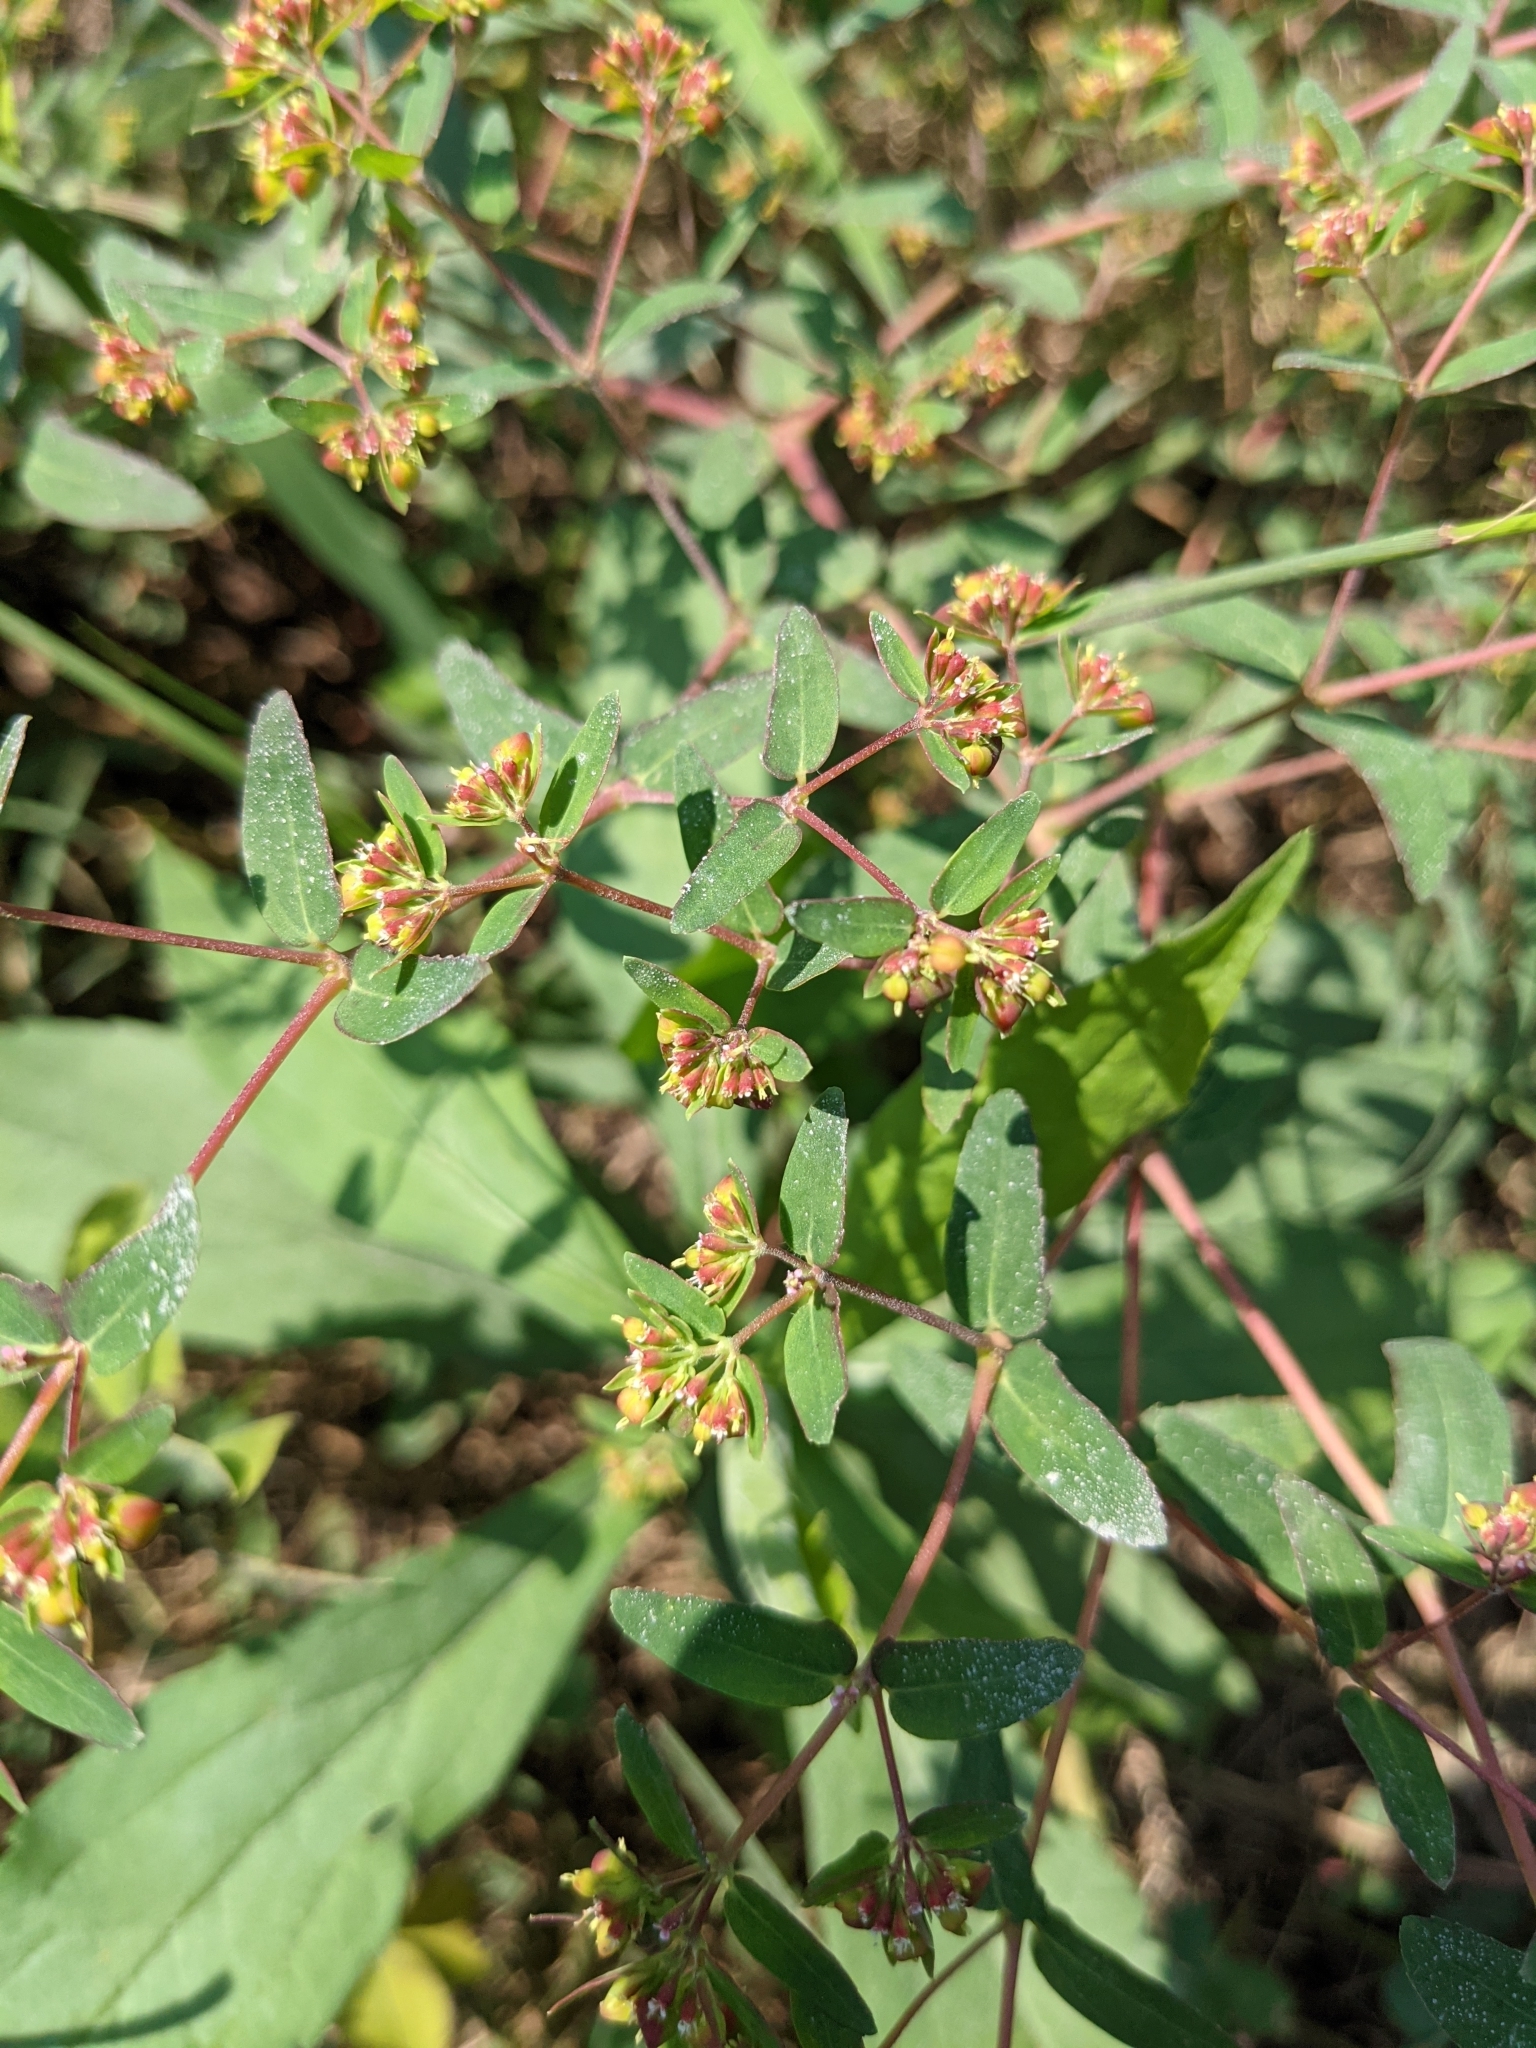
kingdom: Plantae
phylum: Tracheophyta
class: Magnoliopsida
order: Malpighiales
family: Euphorbiaceae
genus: Euphorbia
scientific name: Euphorbia nutans
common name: Eyebane
